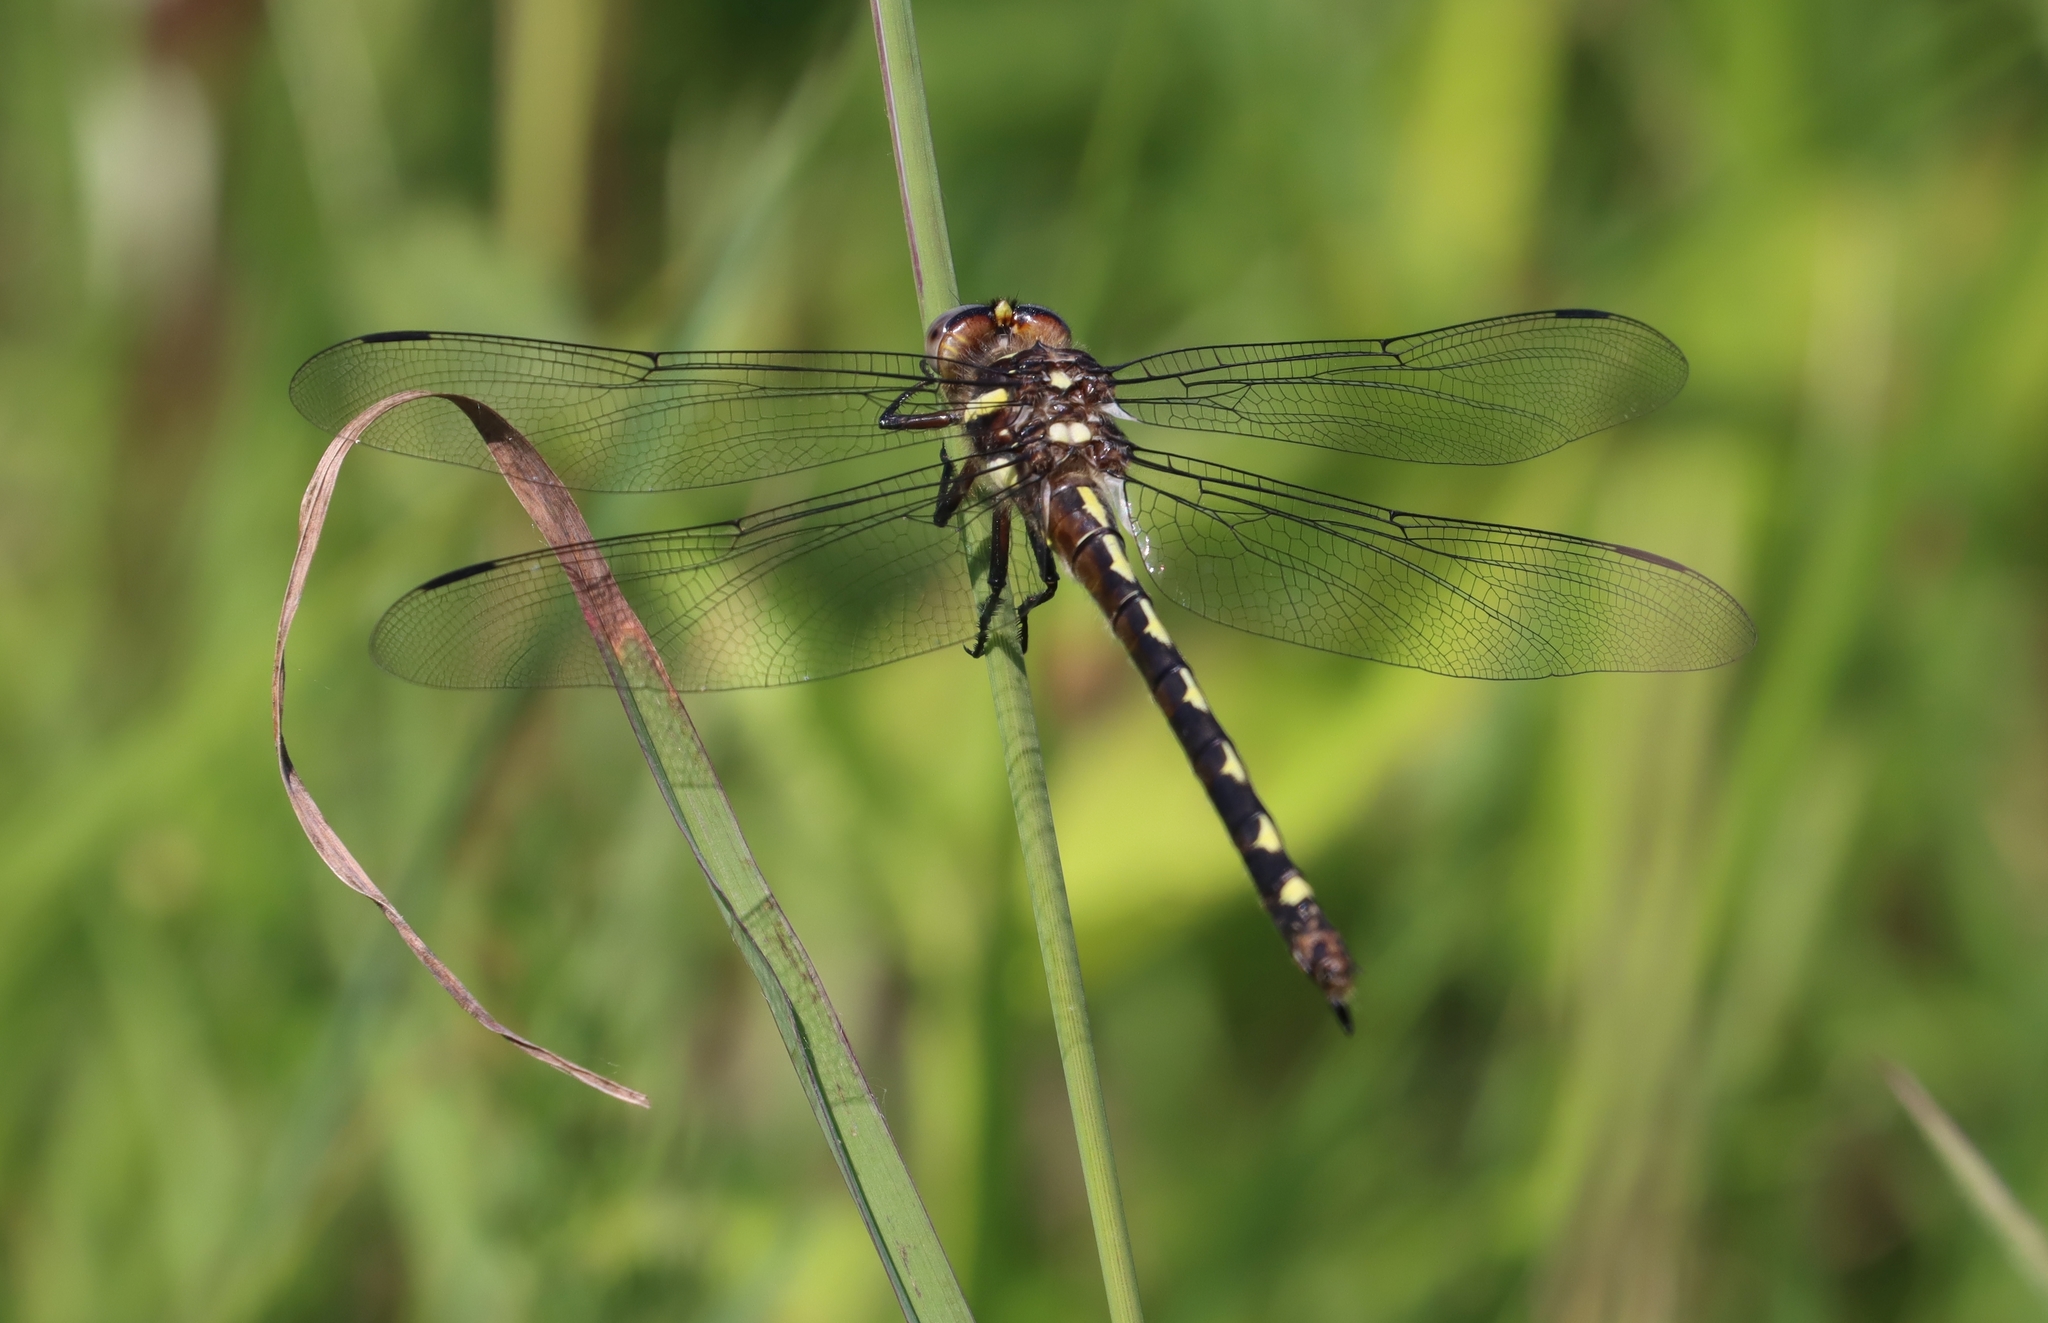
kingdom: Animalia
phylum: Arthropoda
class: Insecta
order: Odonata
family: Cordulegastridae
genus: Cordulegaster
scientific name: Cordulegaster obliqua
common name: Arrowhead spiketail
